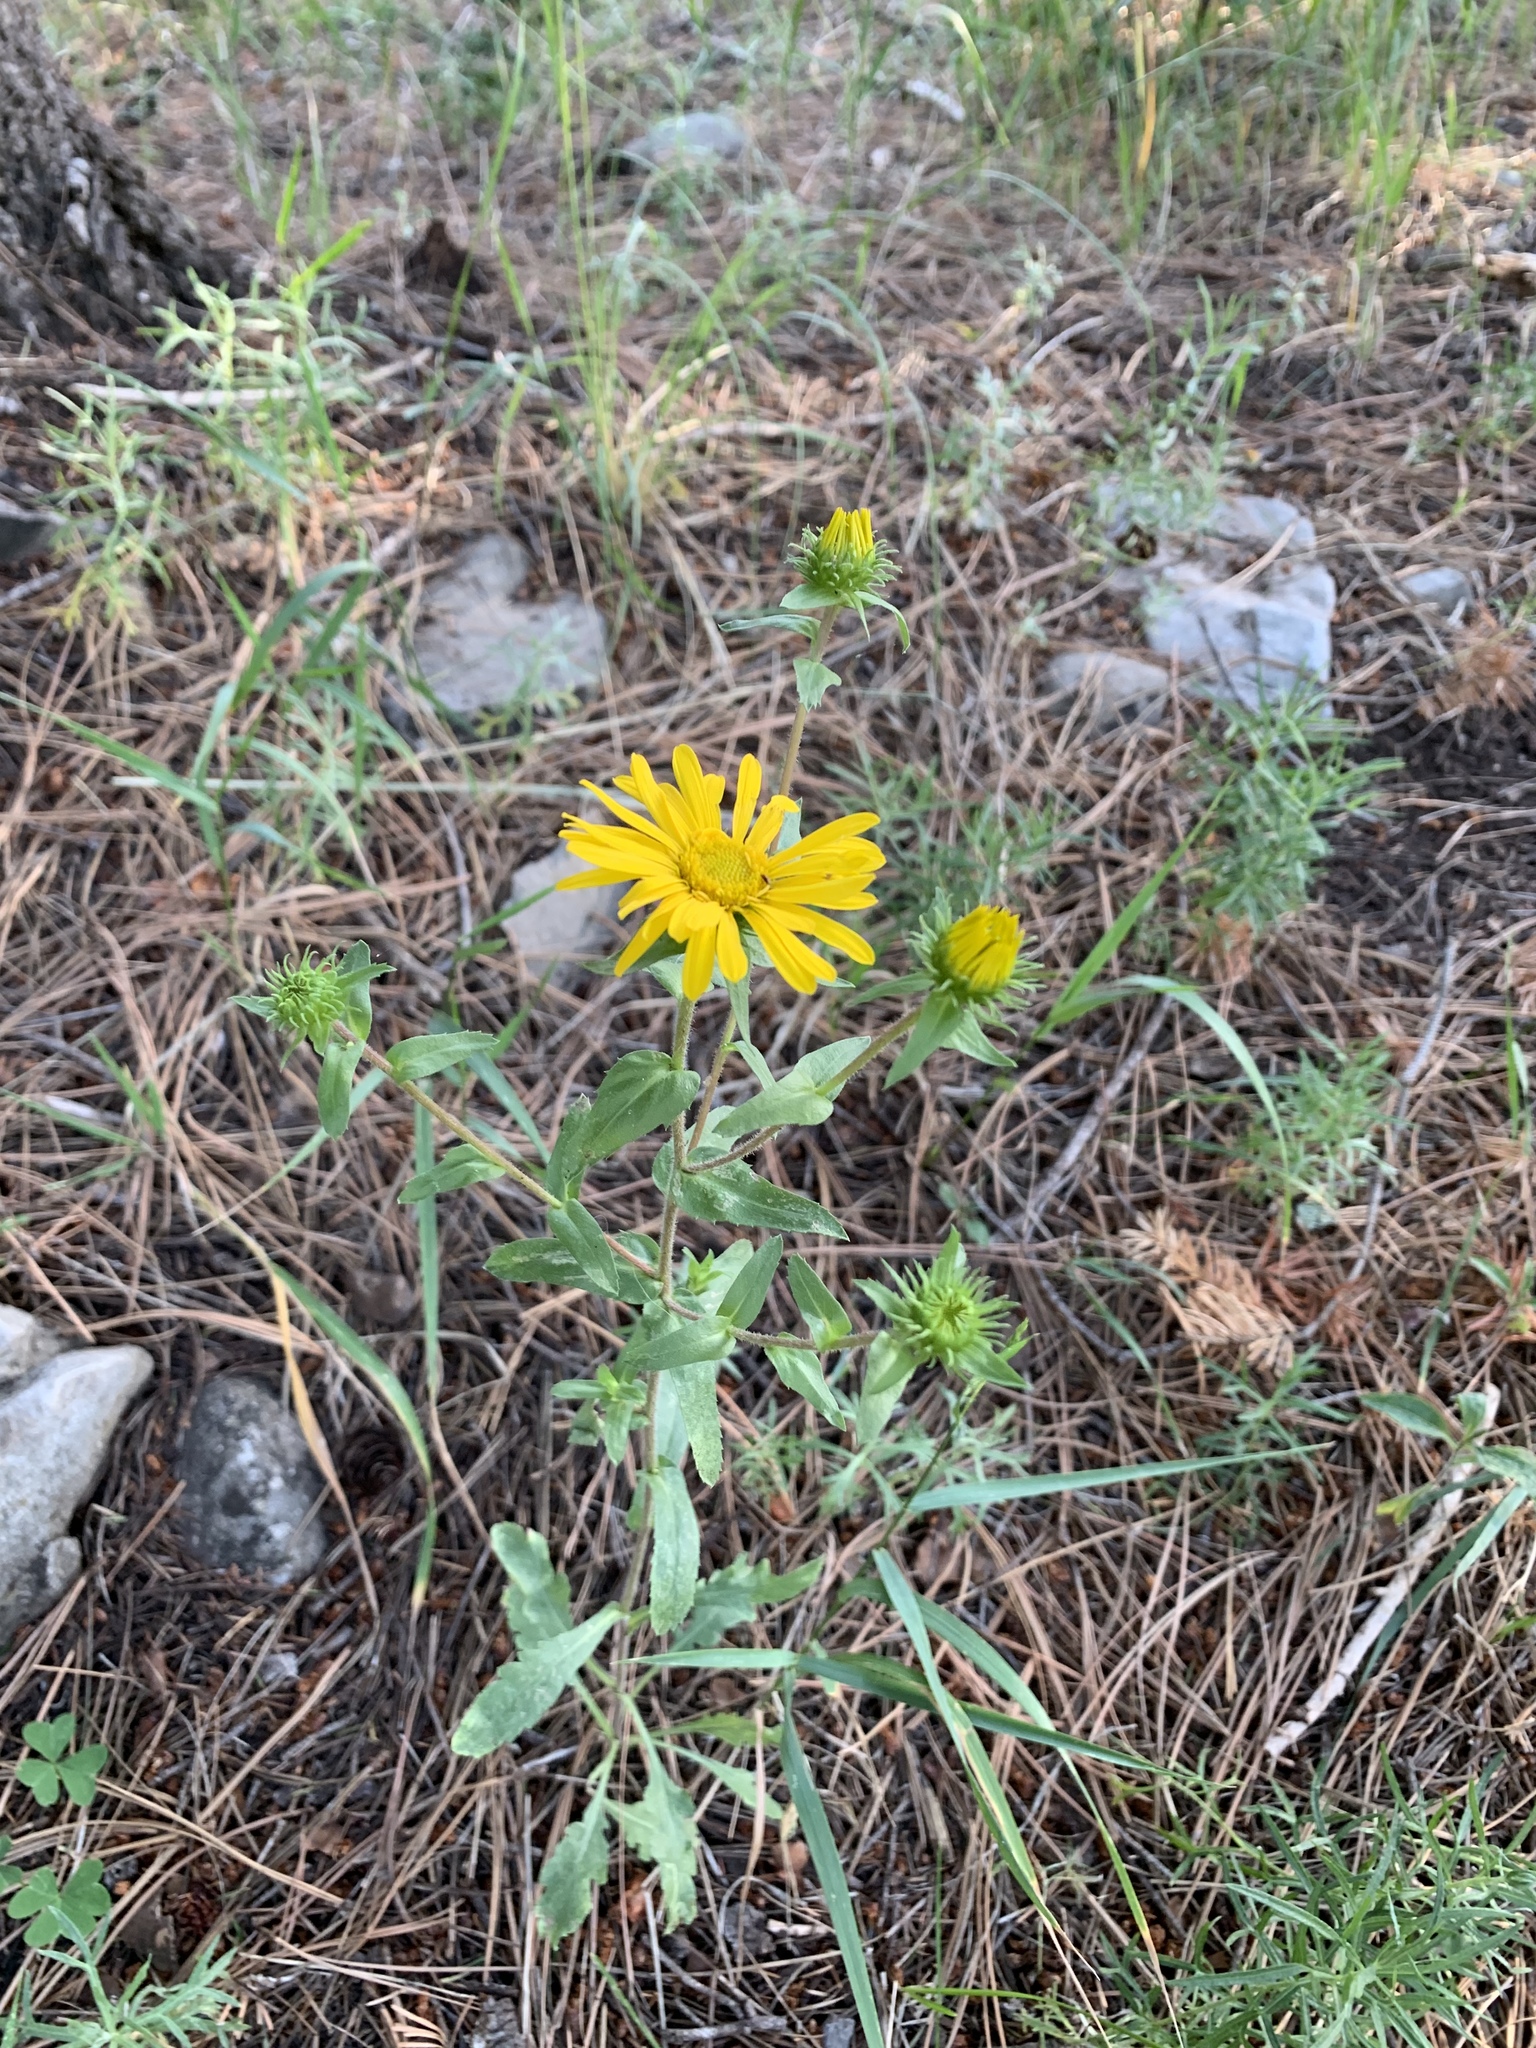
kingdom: Plantae
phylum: Tracheophyta
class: Magnoliopsida
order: Asterales
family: Asteraceae
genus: Grindelia
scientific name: Grindelia scabra
